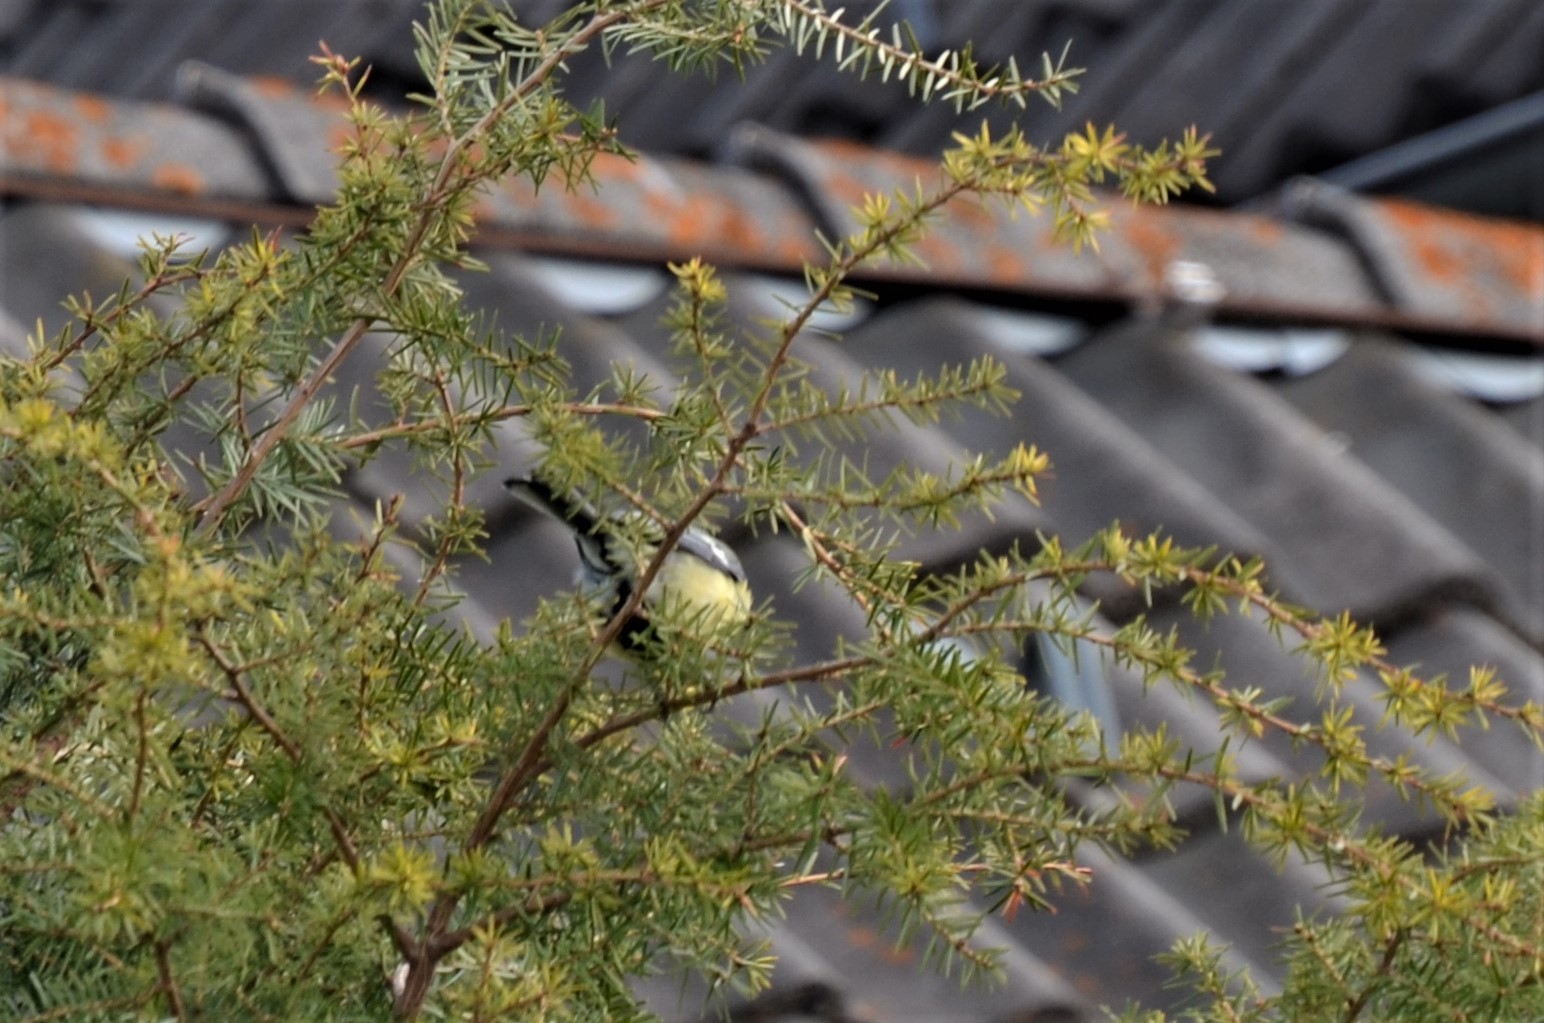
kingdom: Animalia
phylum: Chordata
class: Aves
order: Passeriformes
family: Paridae
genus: Parus
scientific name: Parus major
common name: Great tit
